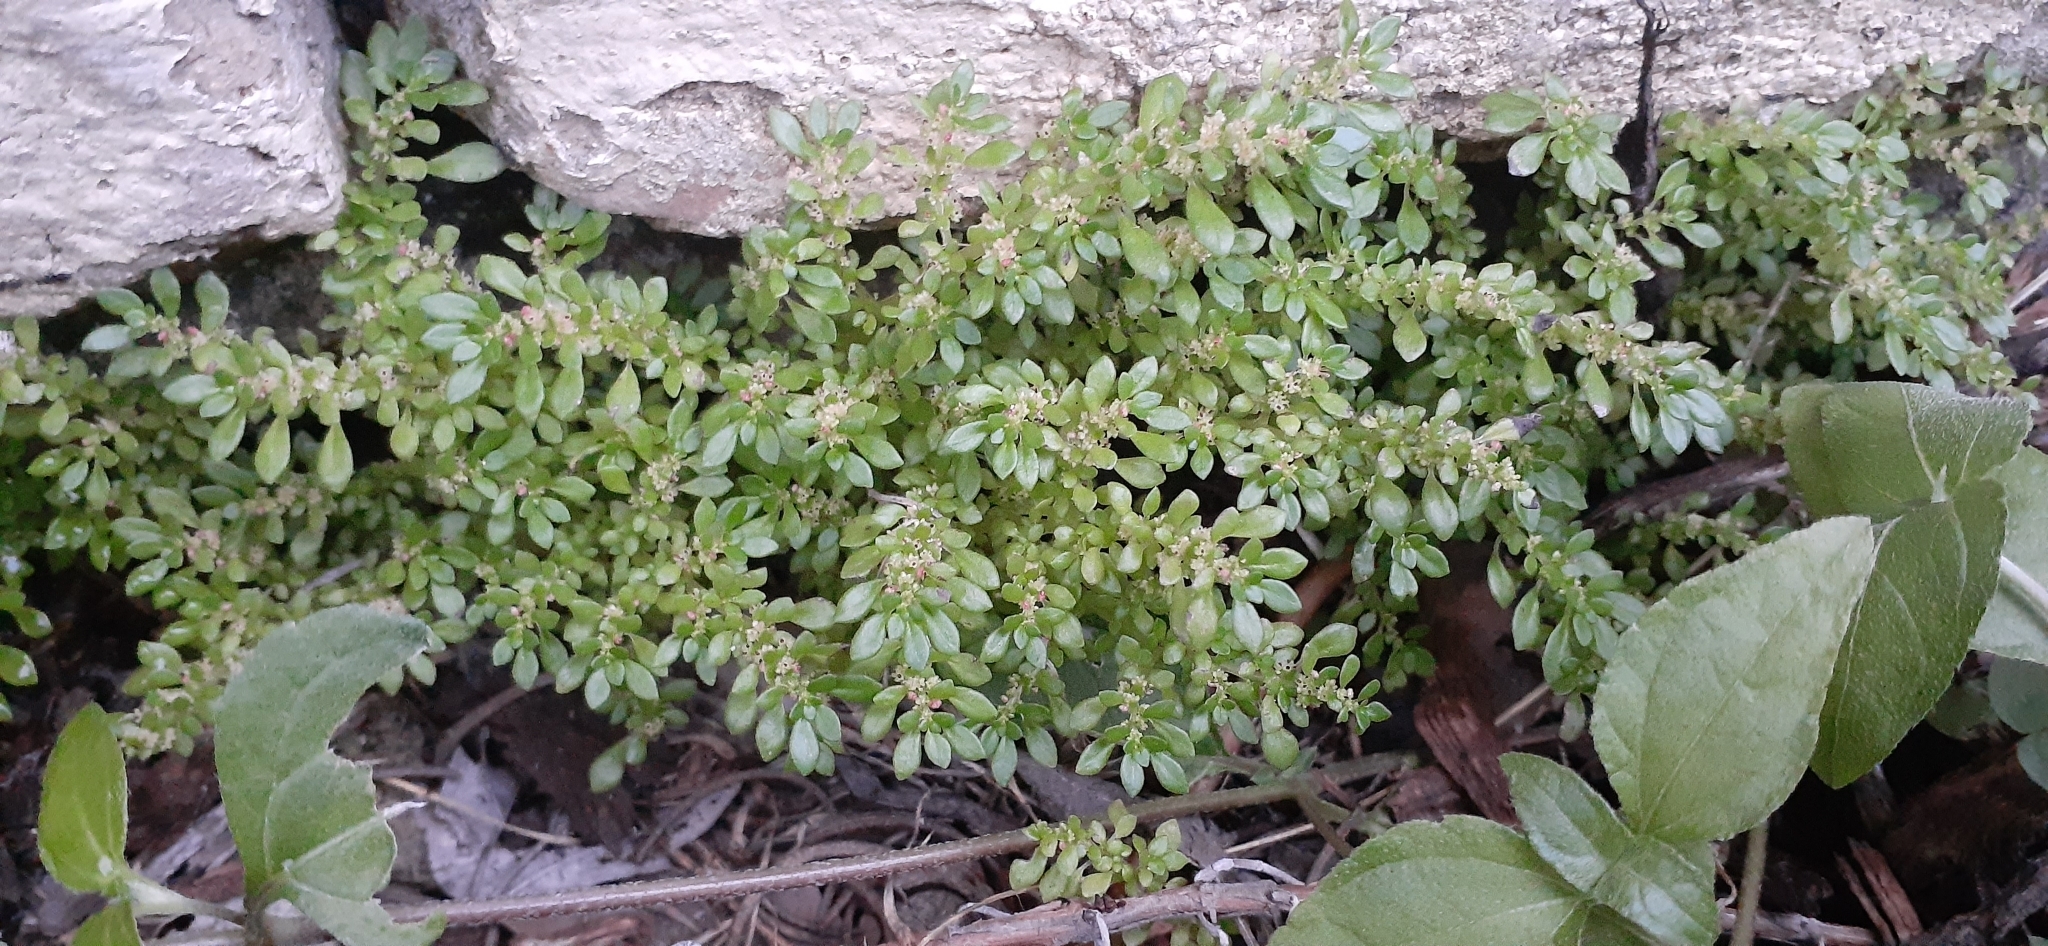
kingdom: Plantae
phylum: Tracheophyta
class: Magnoliopsida
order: Rosales
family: Urticaceae
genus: Pilea
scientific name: Pilea microphylla
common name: Artillery-plant
